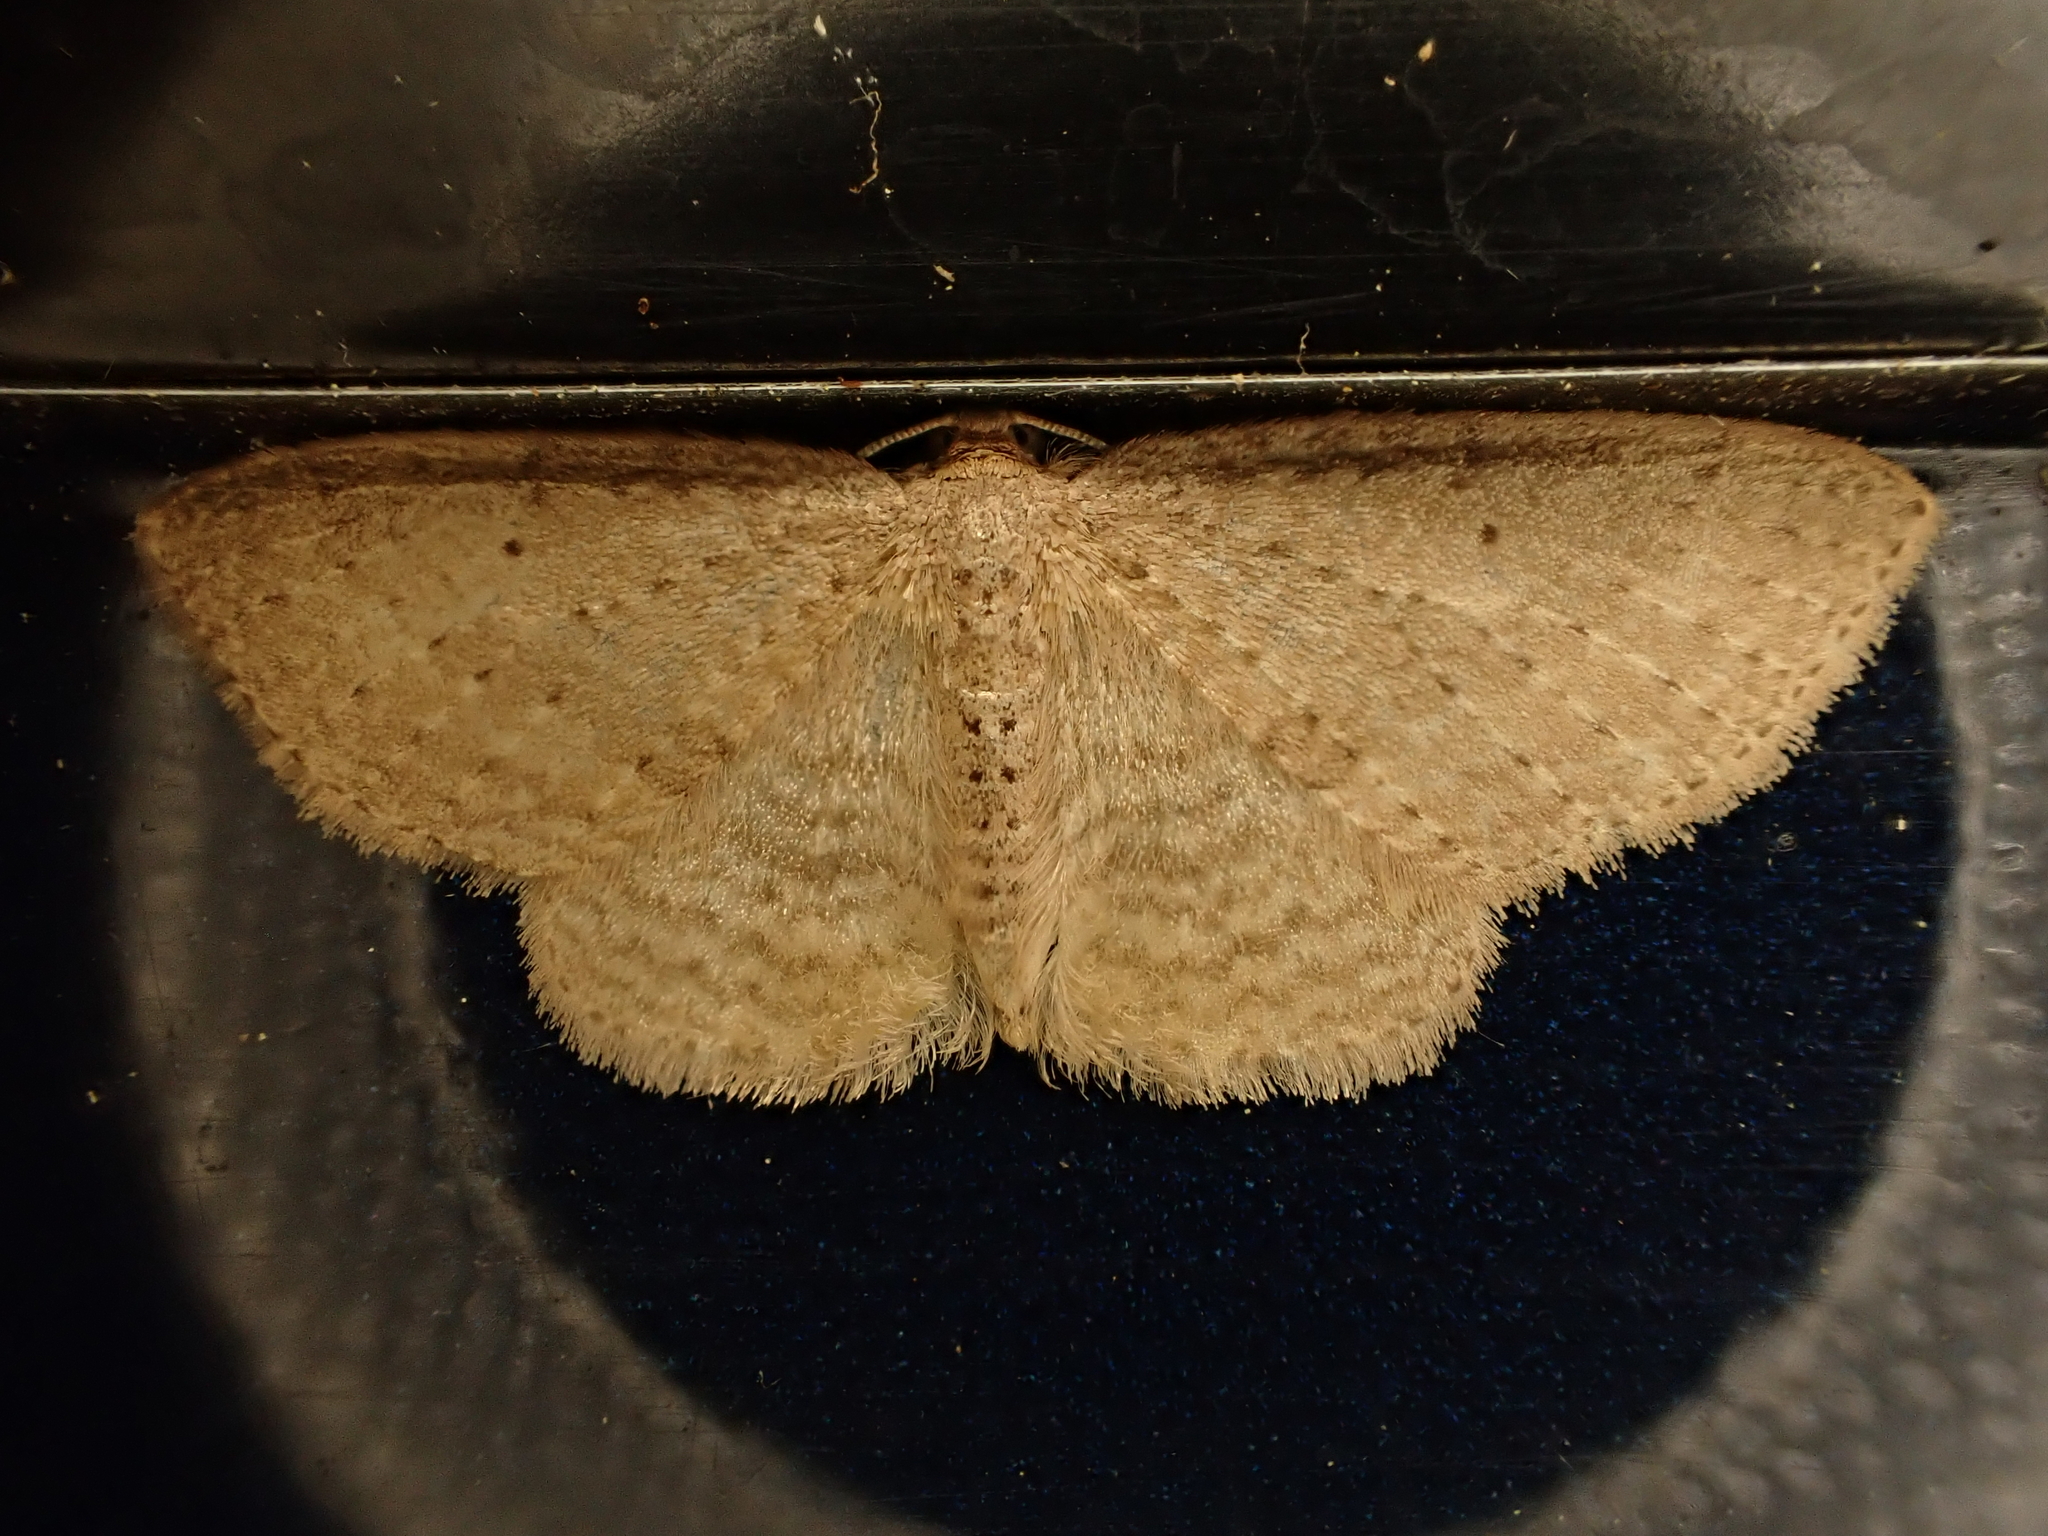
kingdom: Animalia
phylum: Arthropoda
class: Insecta
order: Lepidoptera
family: Geometridae
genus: Poecilasthena
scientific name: Poecilasthena schistaria
